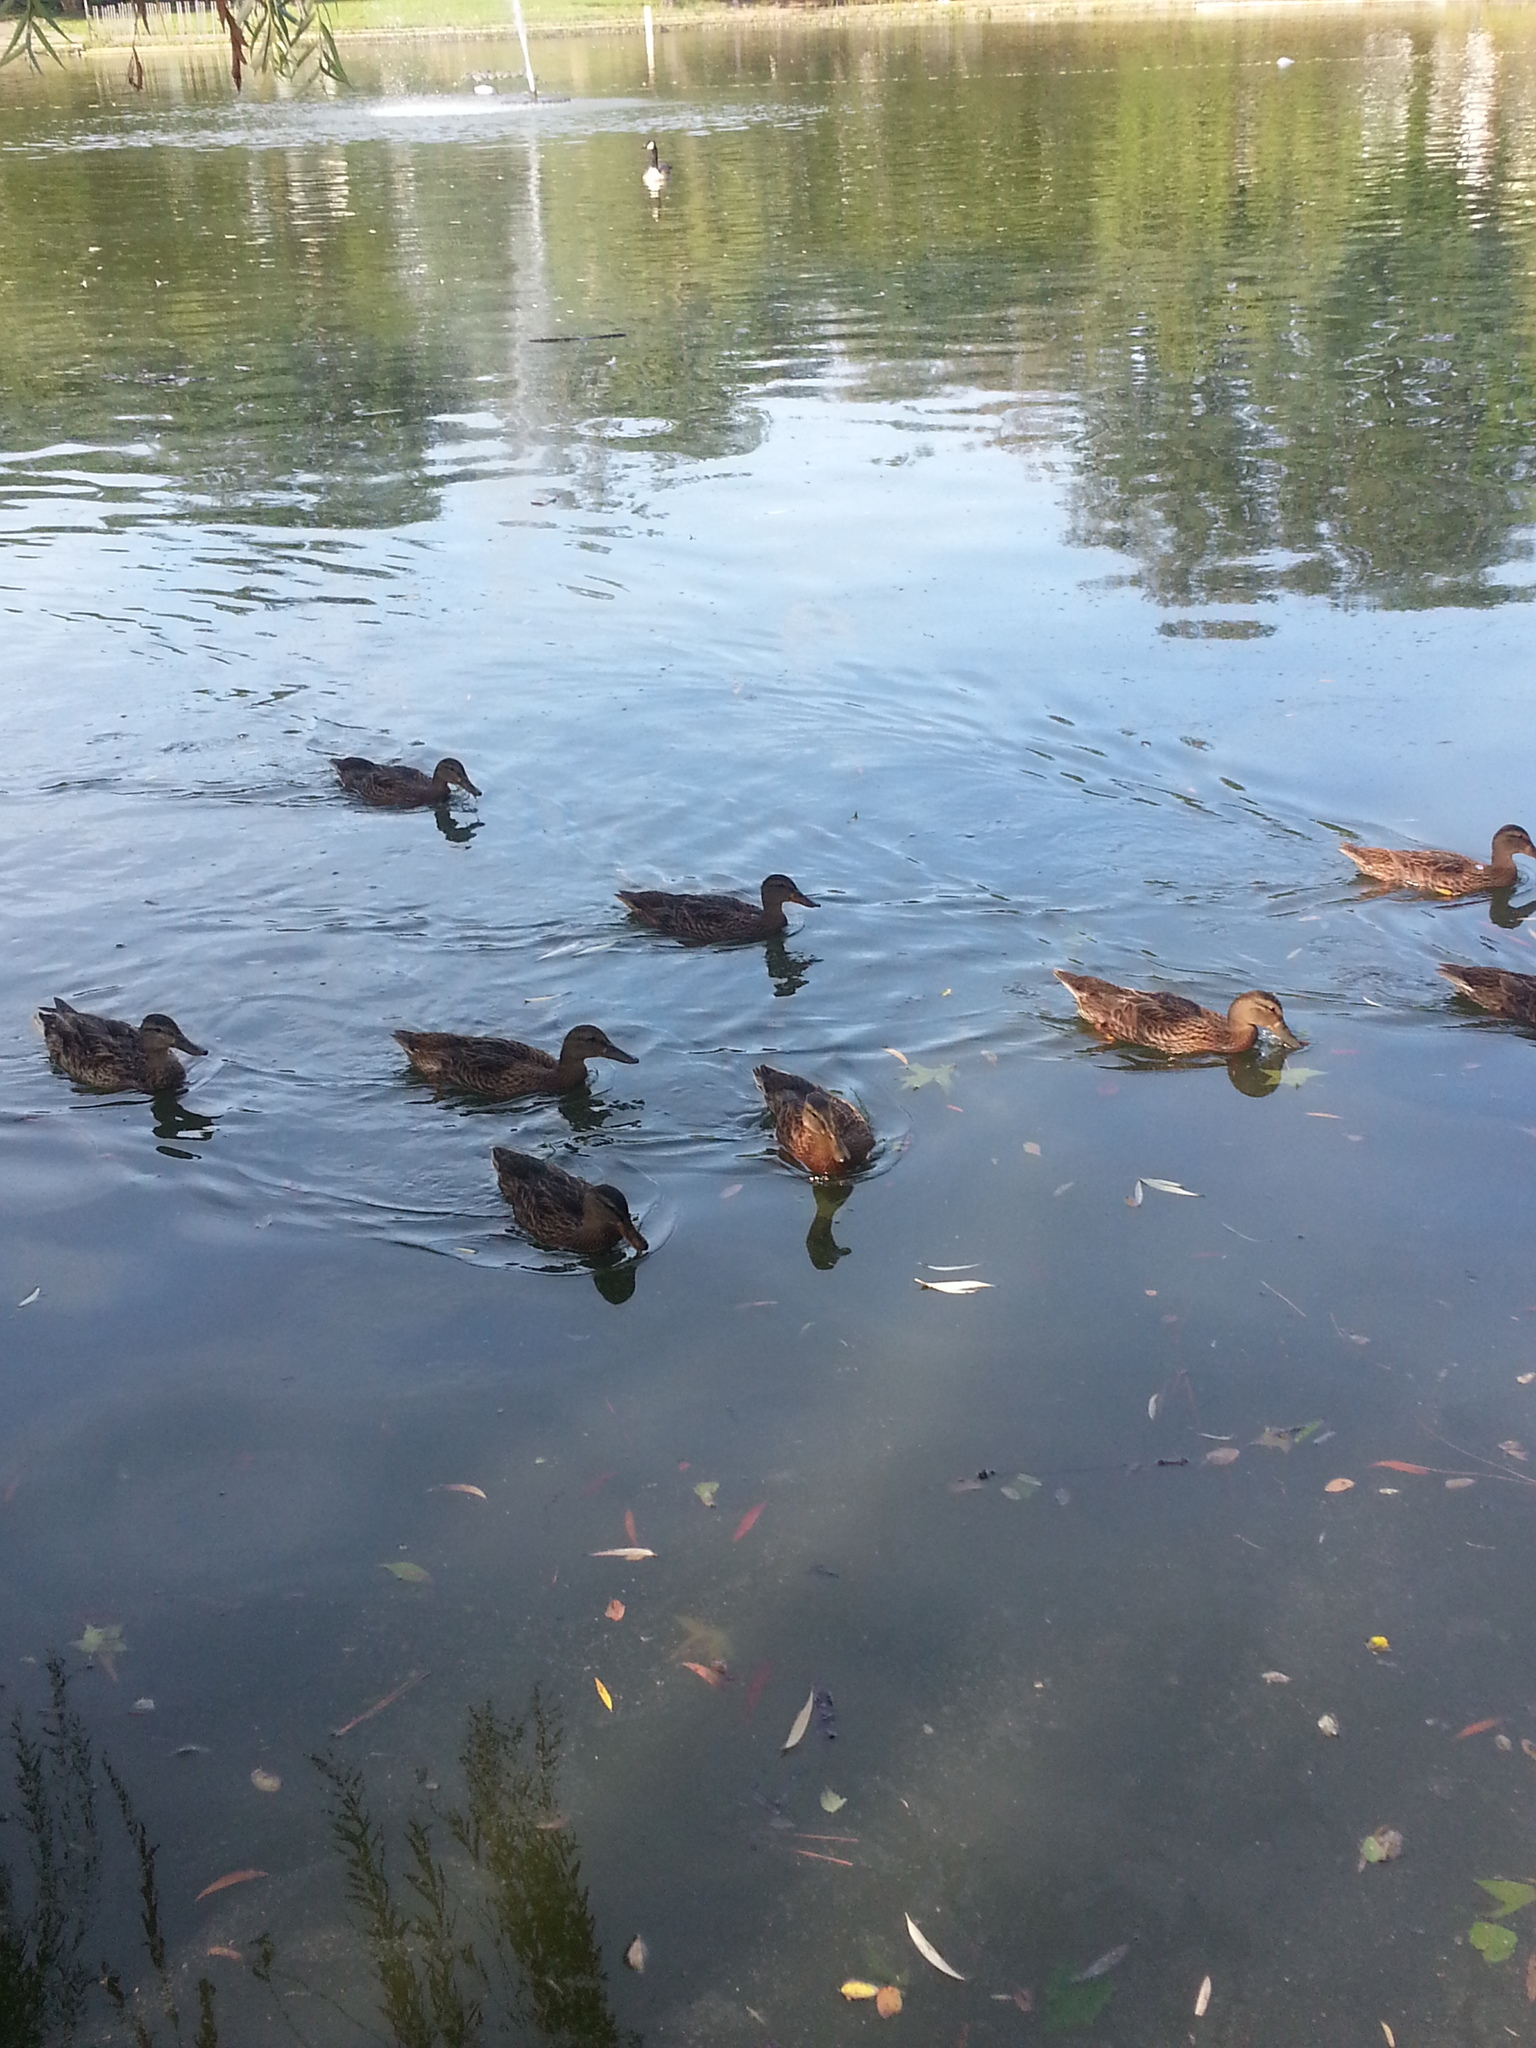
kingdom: Animalia
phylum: Chordata
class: Aves
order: Anseriformes
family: Anatidae
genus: Anas
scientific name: Anas platyrhynchos
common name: Mallard
